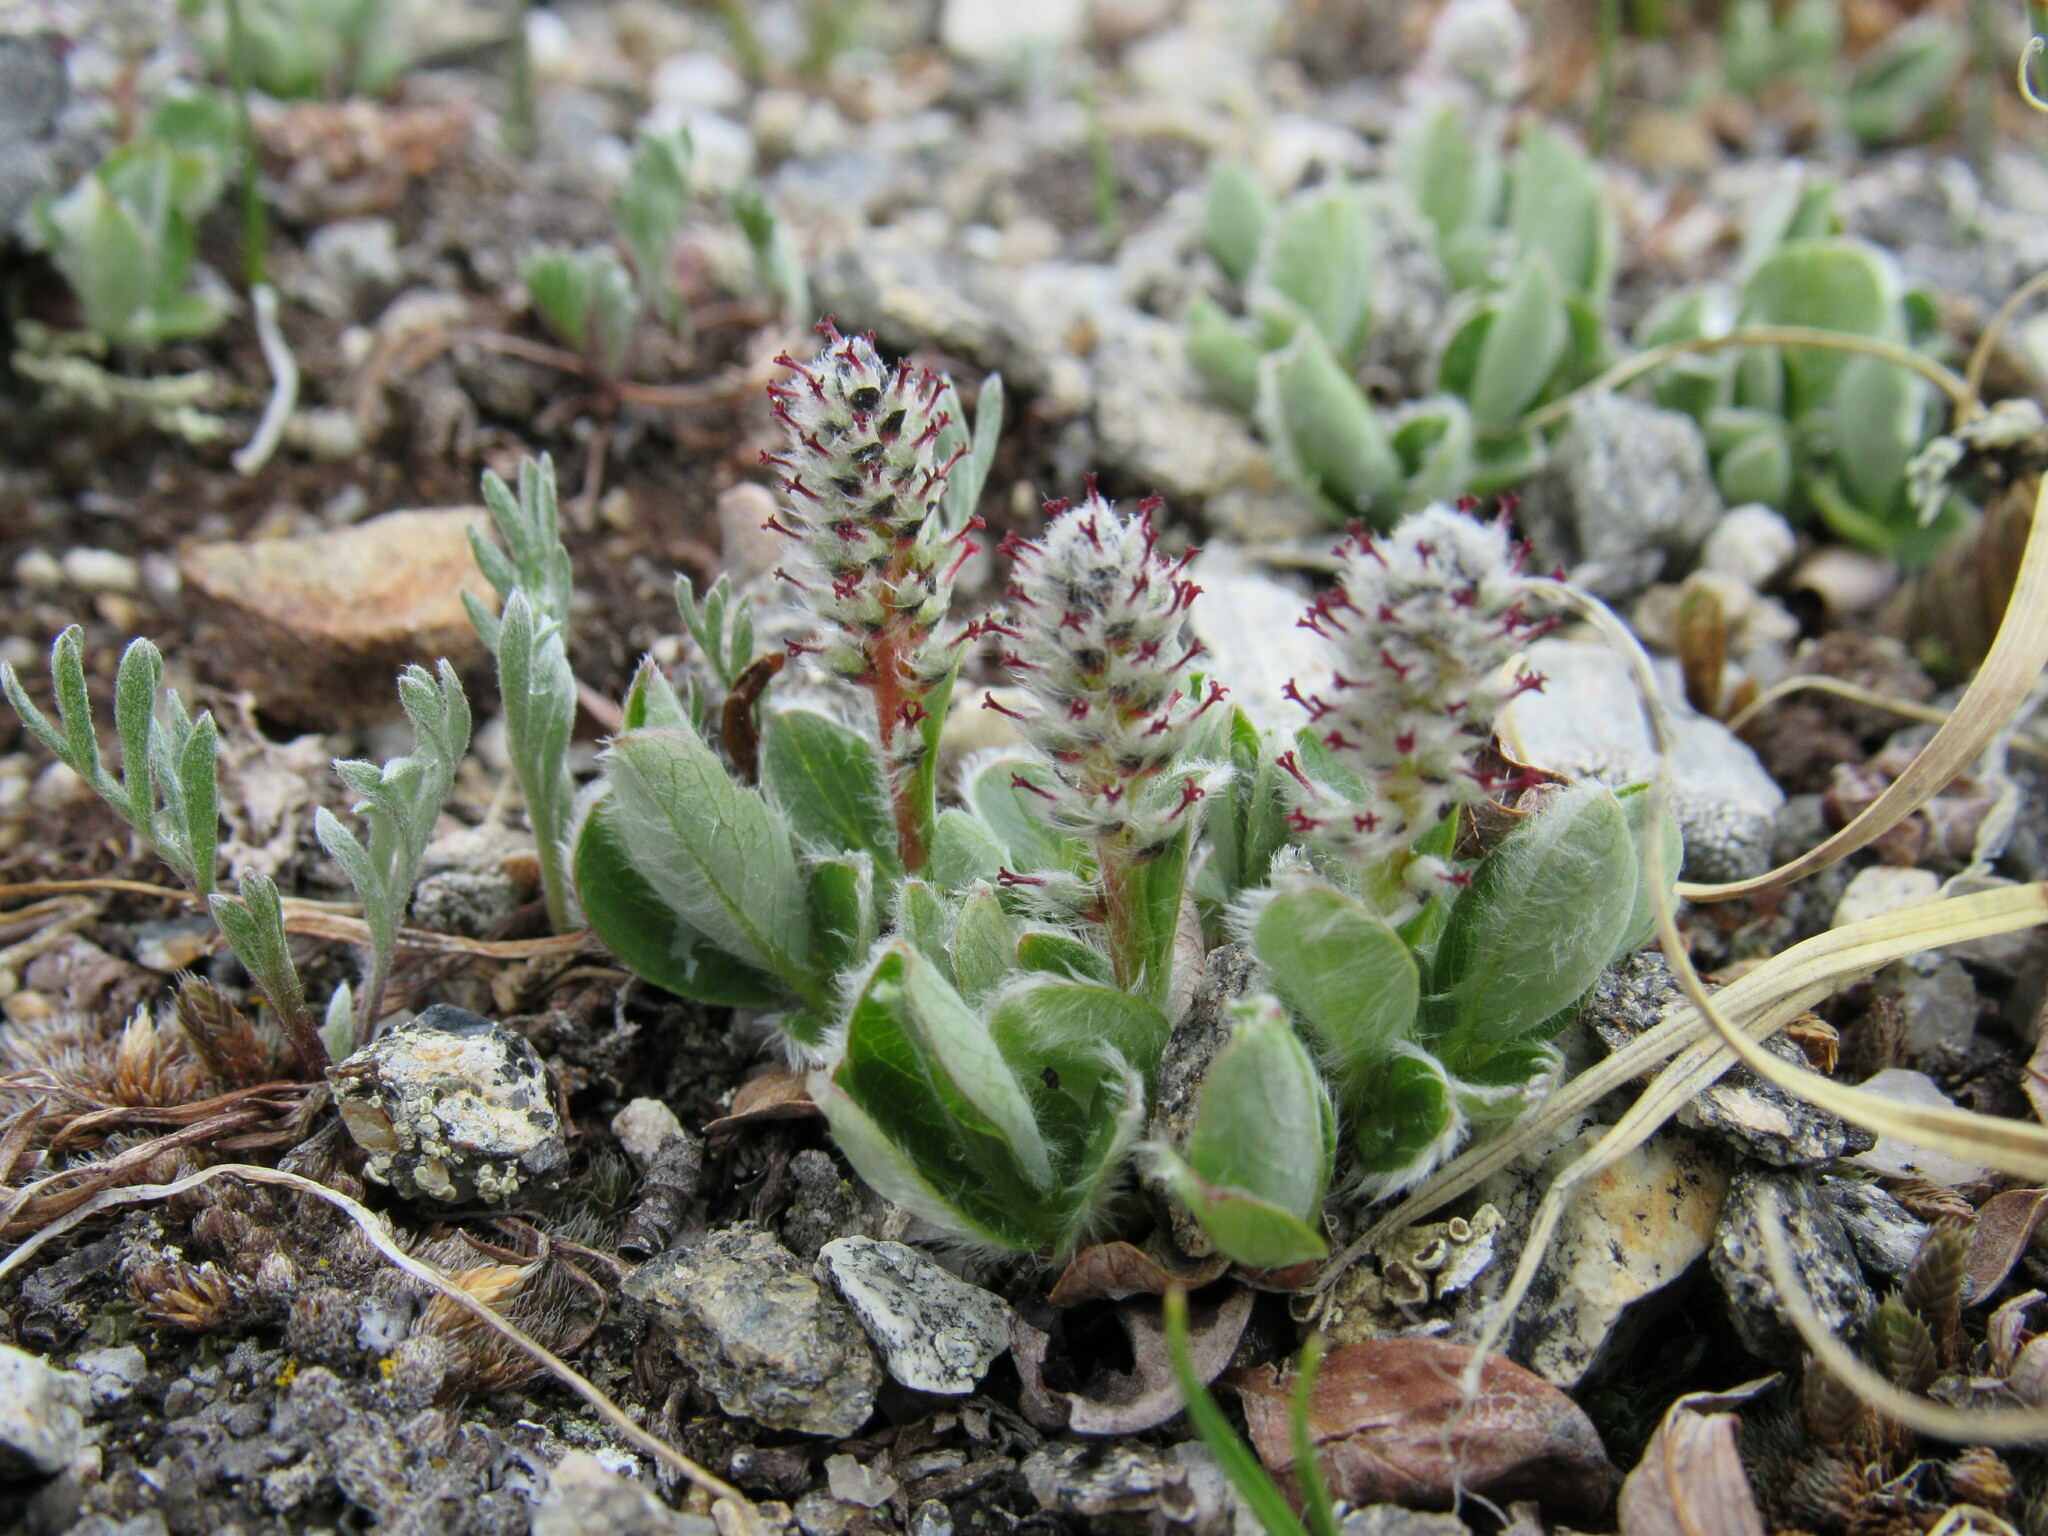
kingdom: Plantae
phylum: Tracheophyta
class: Magnoliopsida
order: Malpighiales
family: Salicaceae
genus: Salix
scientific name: Salix petrophila
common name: Rocky mountain willow
